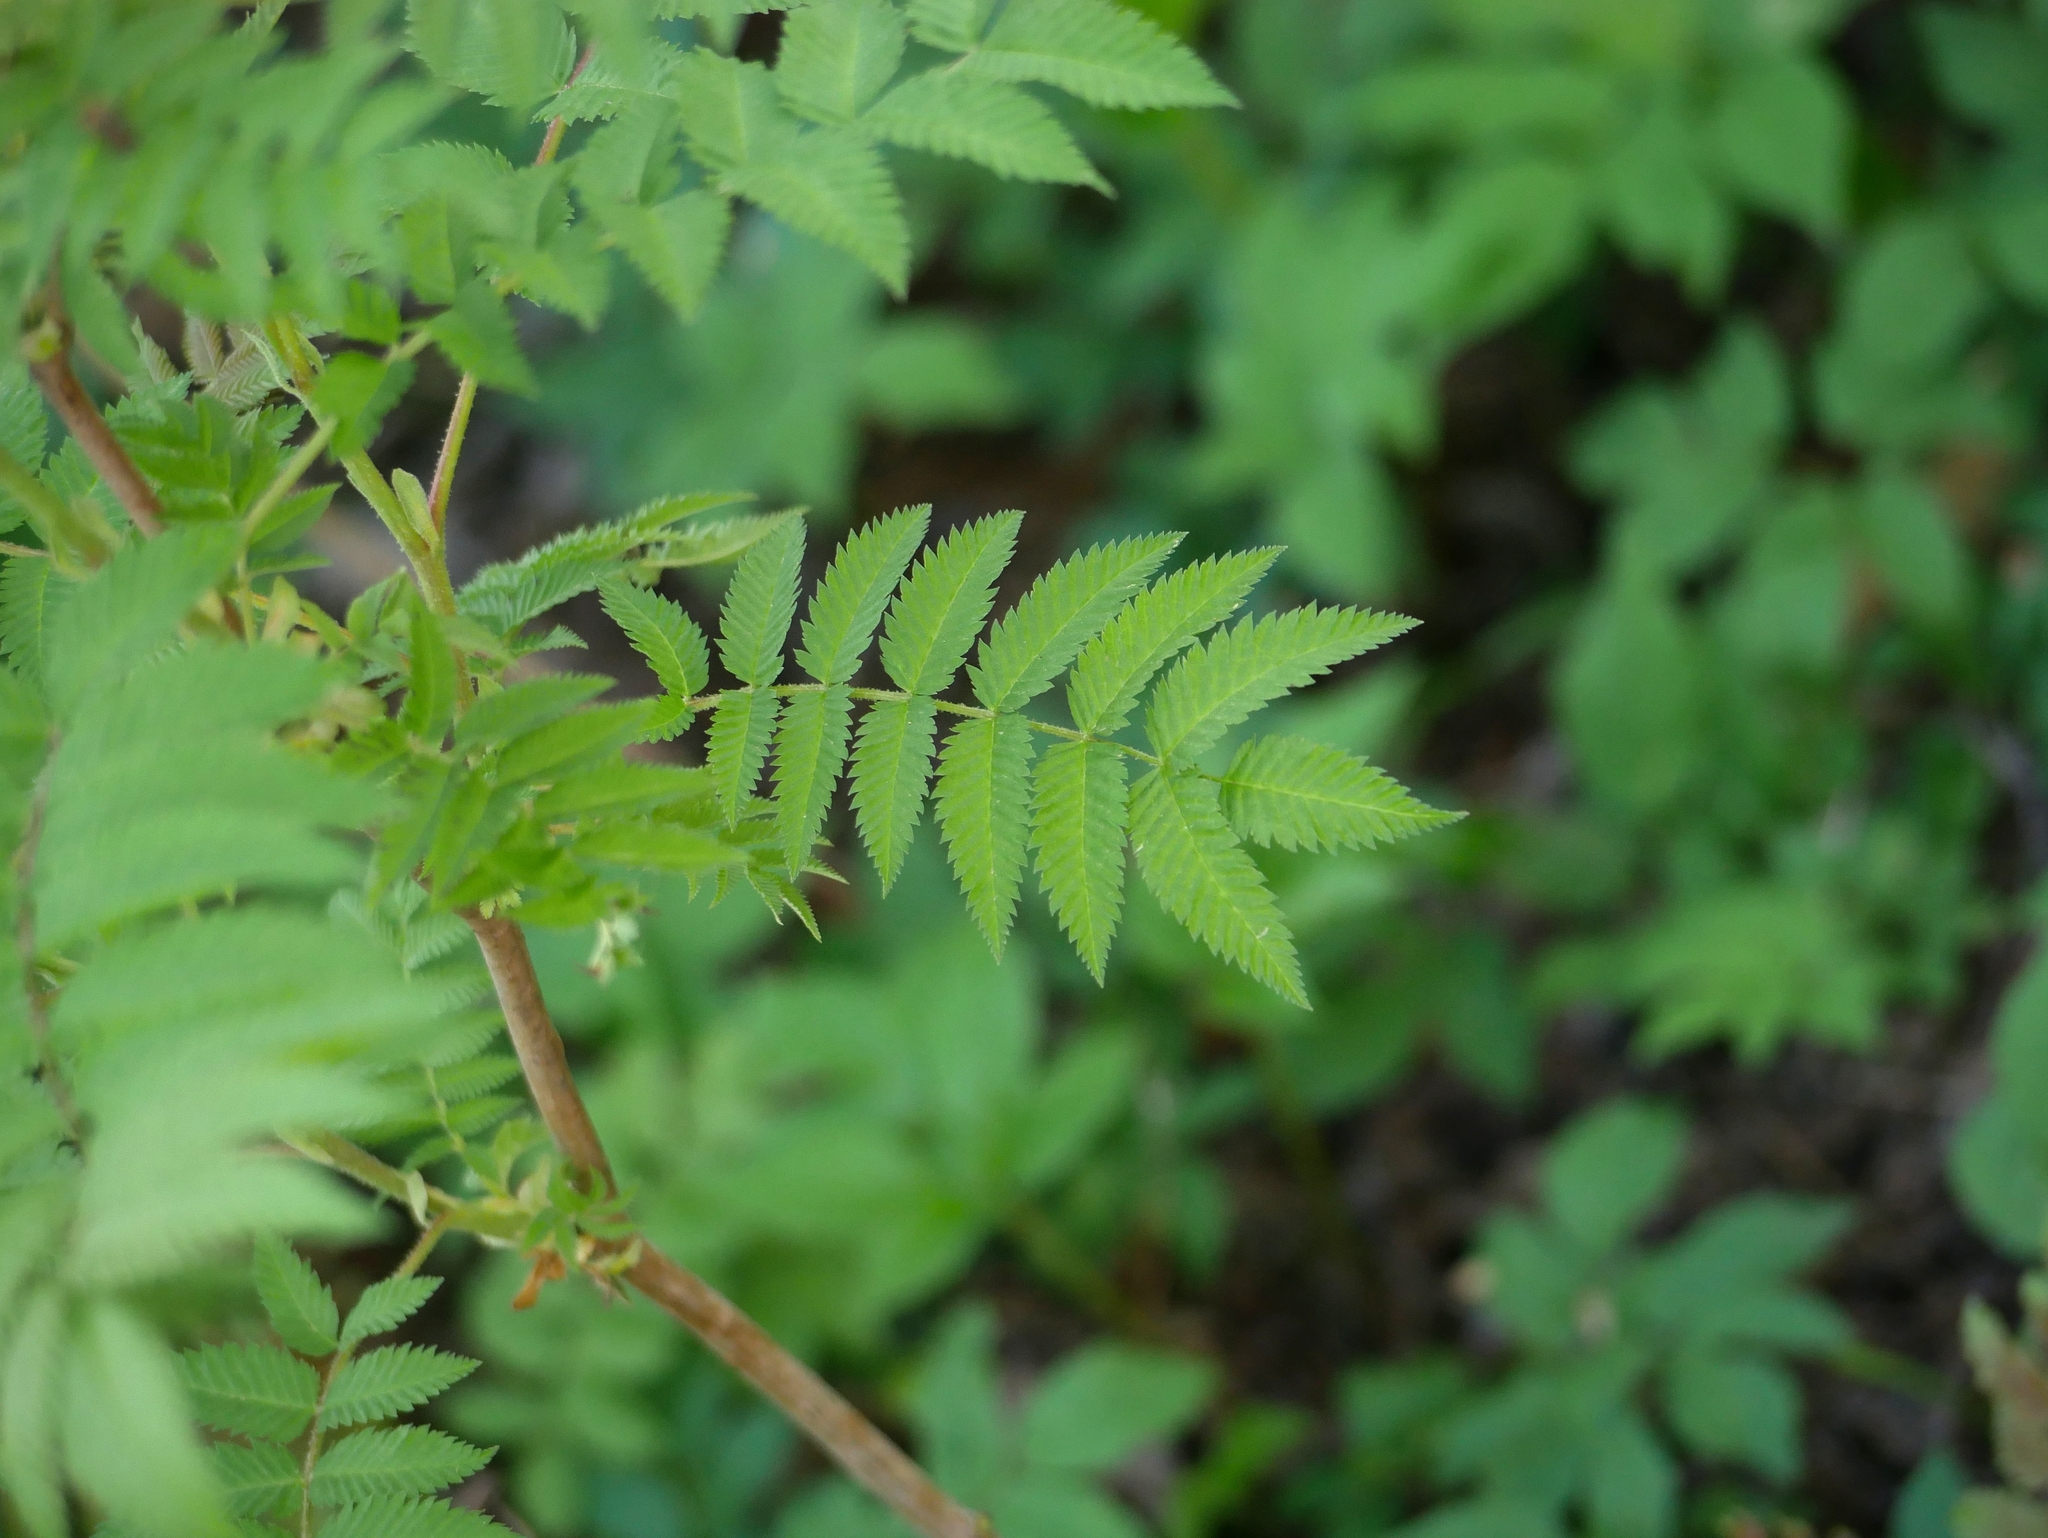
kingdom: Plantae
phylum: Tracheophyta
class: Magnoliopsida
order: Sapindales
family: Anacardiaceae
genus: Rhus
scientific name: Rhus typhina
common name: Staghorn sumac
